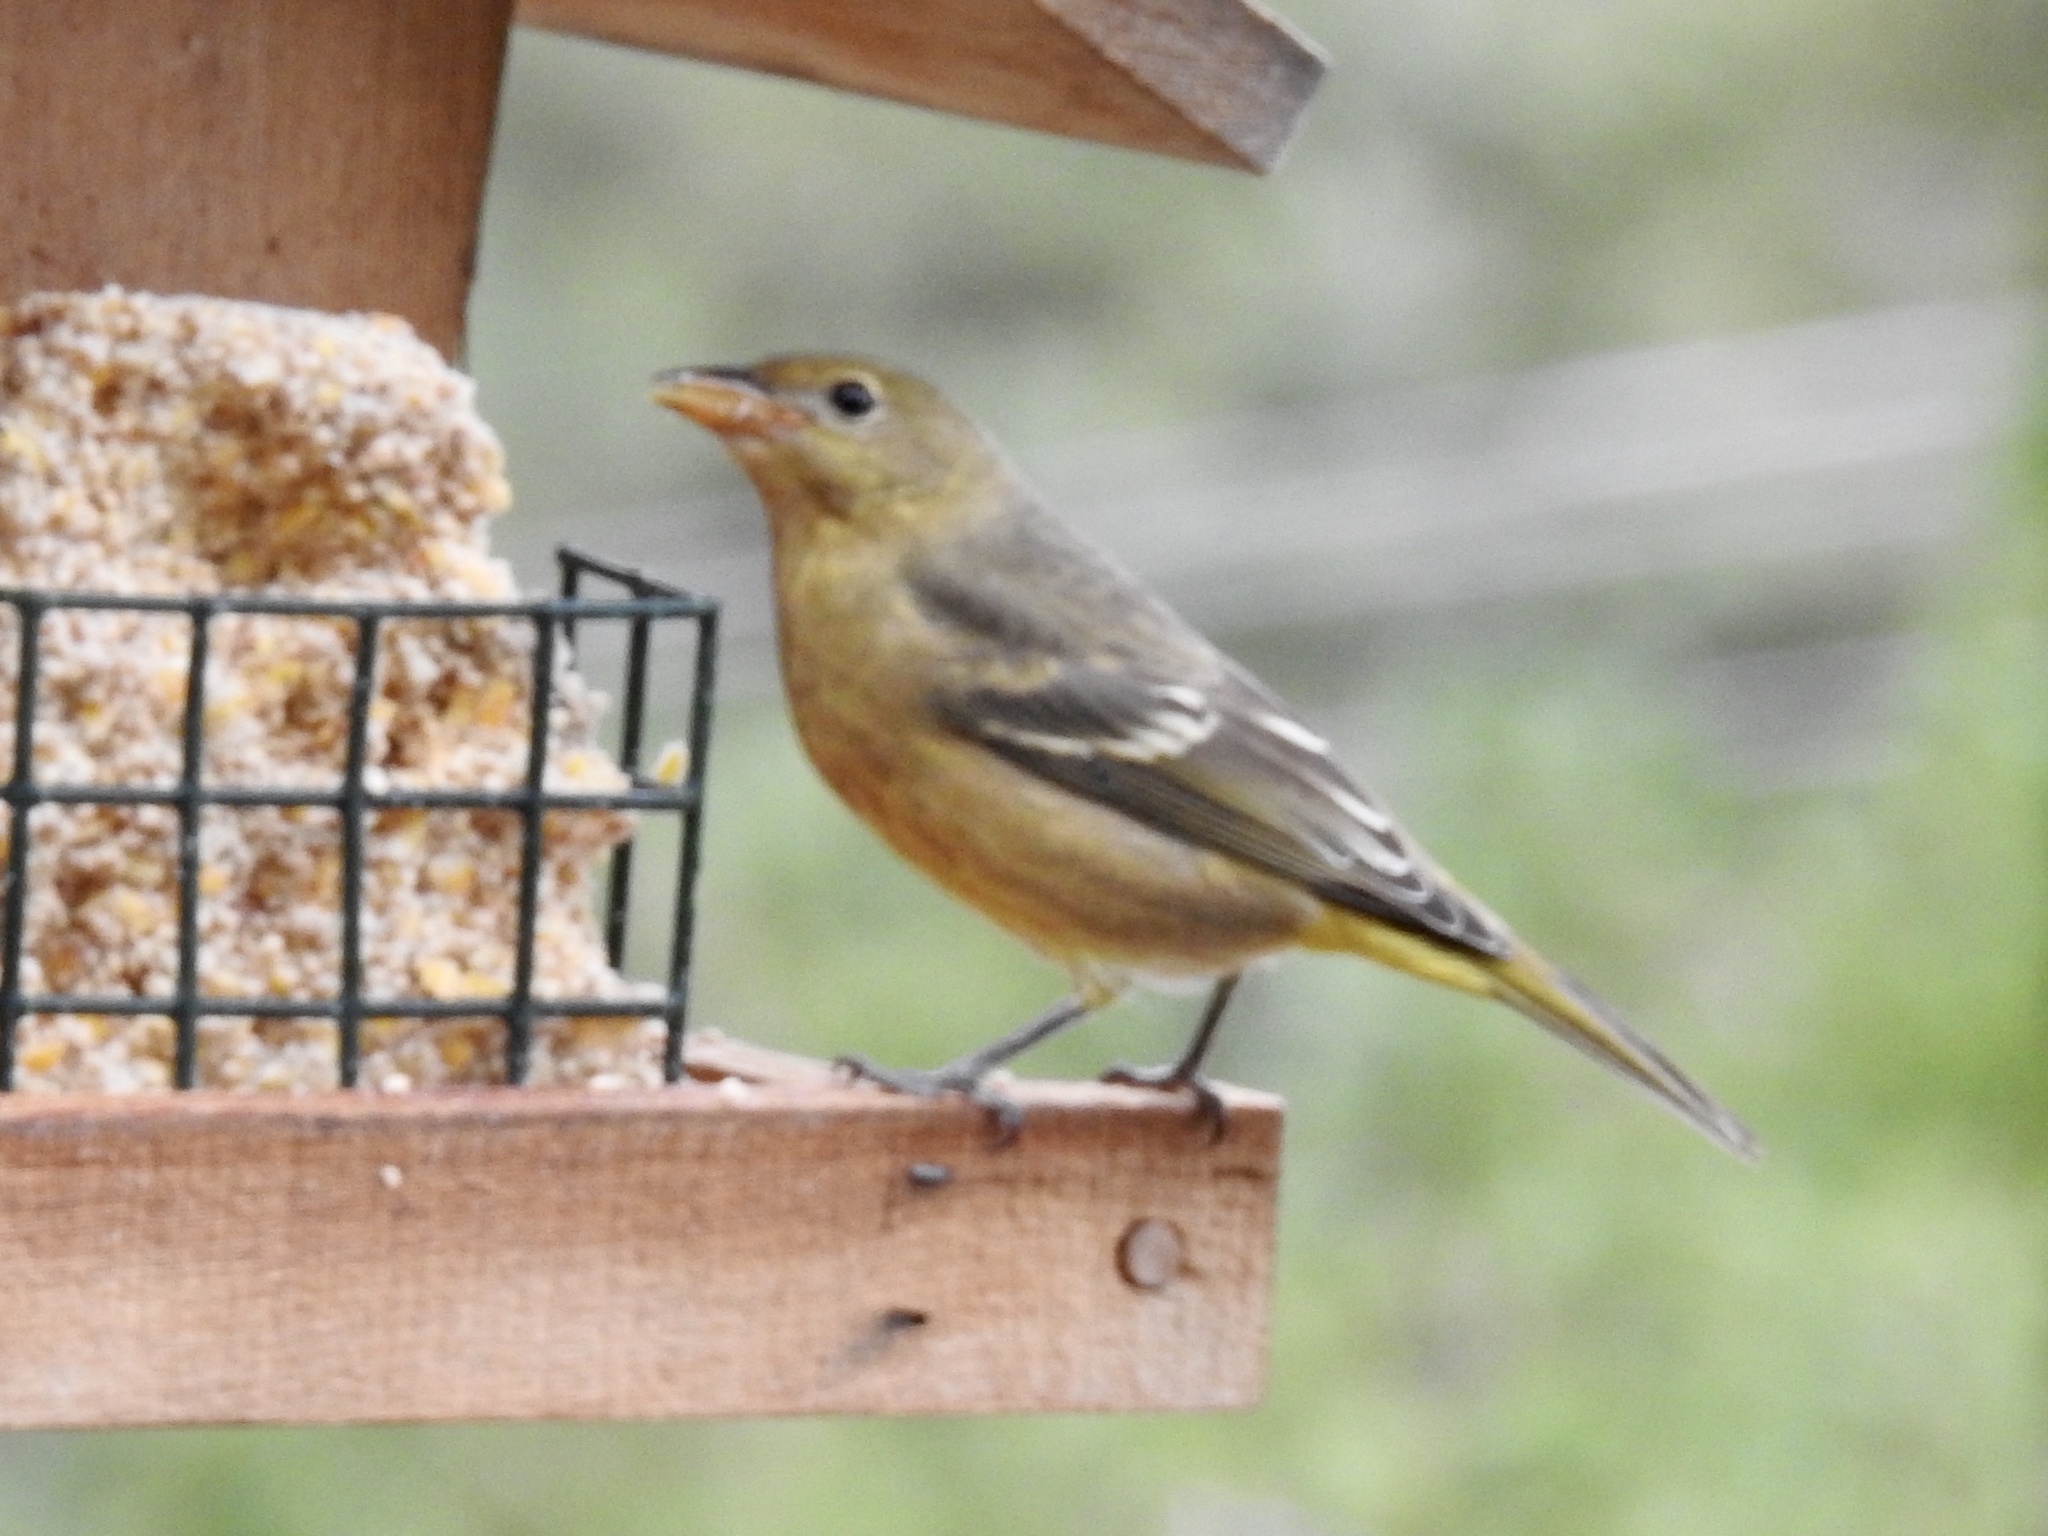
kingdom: Animalia
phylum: Chordata
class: Aves
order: Passeriformes
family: Cardinalidae
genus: Piranga
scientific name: Piranga ludoviciana
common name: Western tanager
